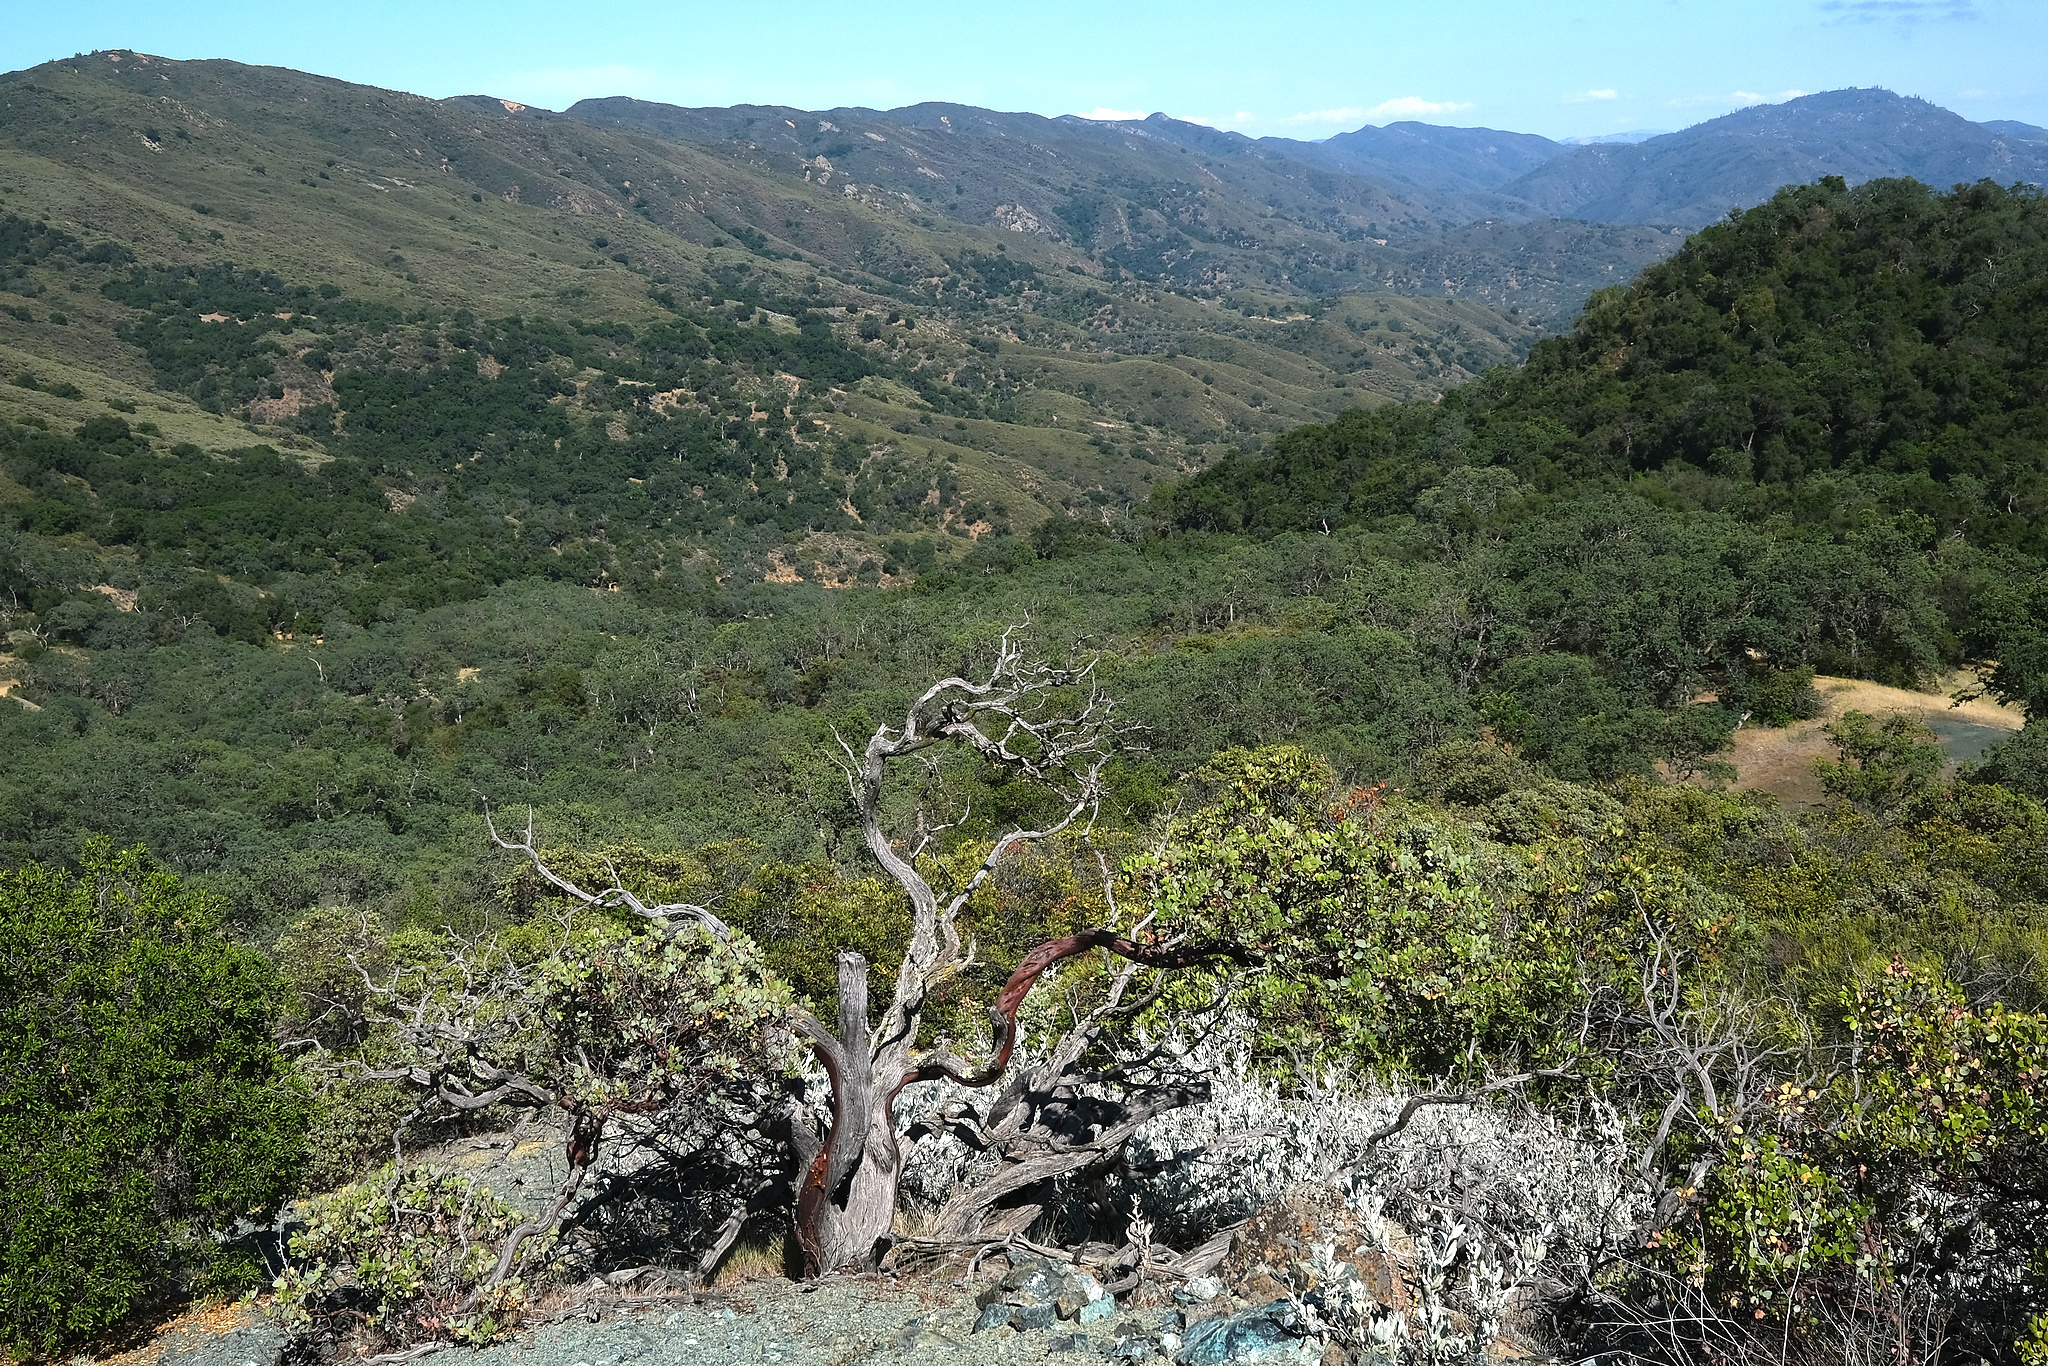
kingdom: Plantae
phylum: Tracheophyta
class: Magnoliopsida
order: Ericales
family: Ericaceae
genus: Arctostaphylos
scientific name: Arctostaphylos glauca
